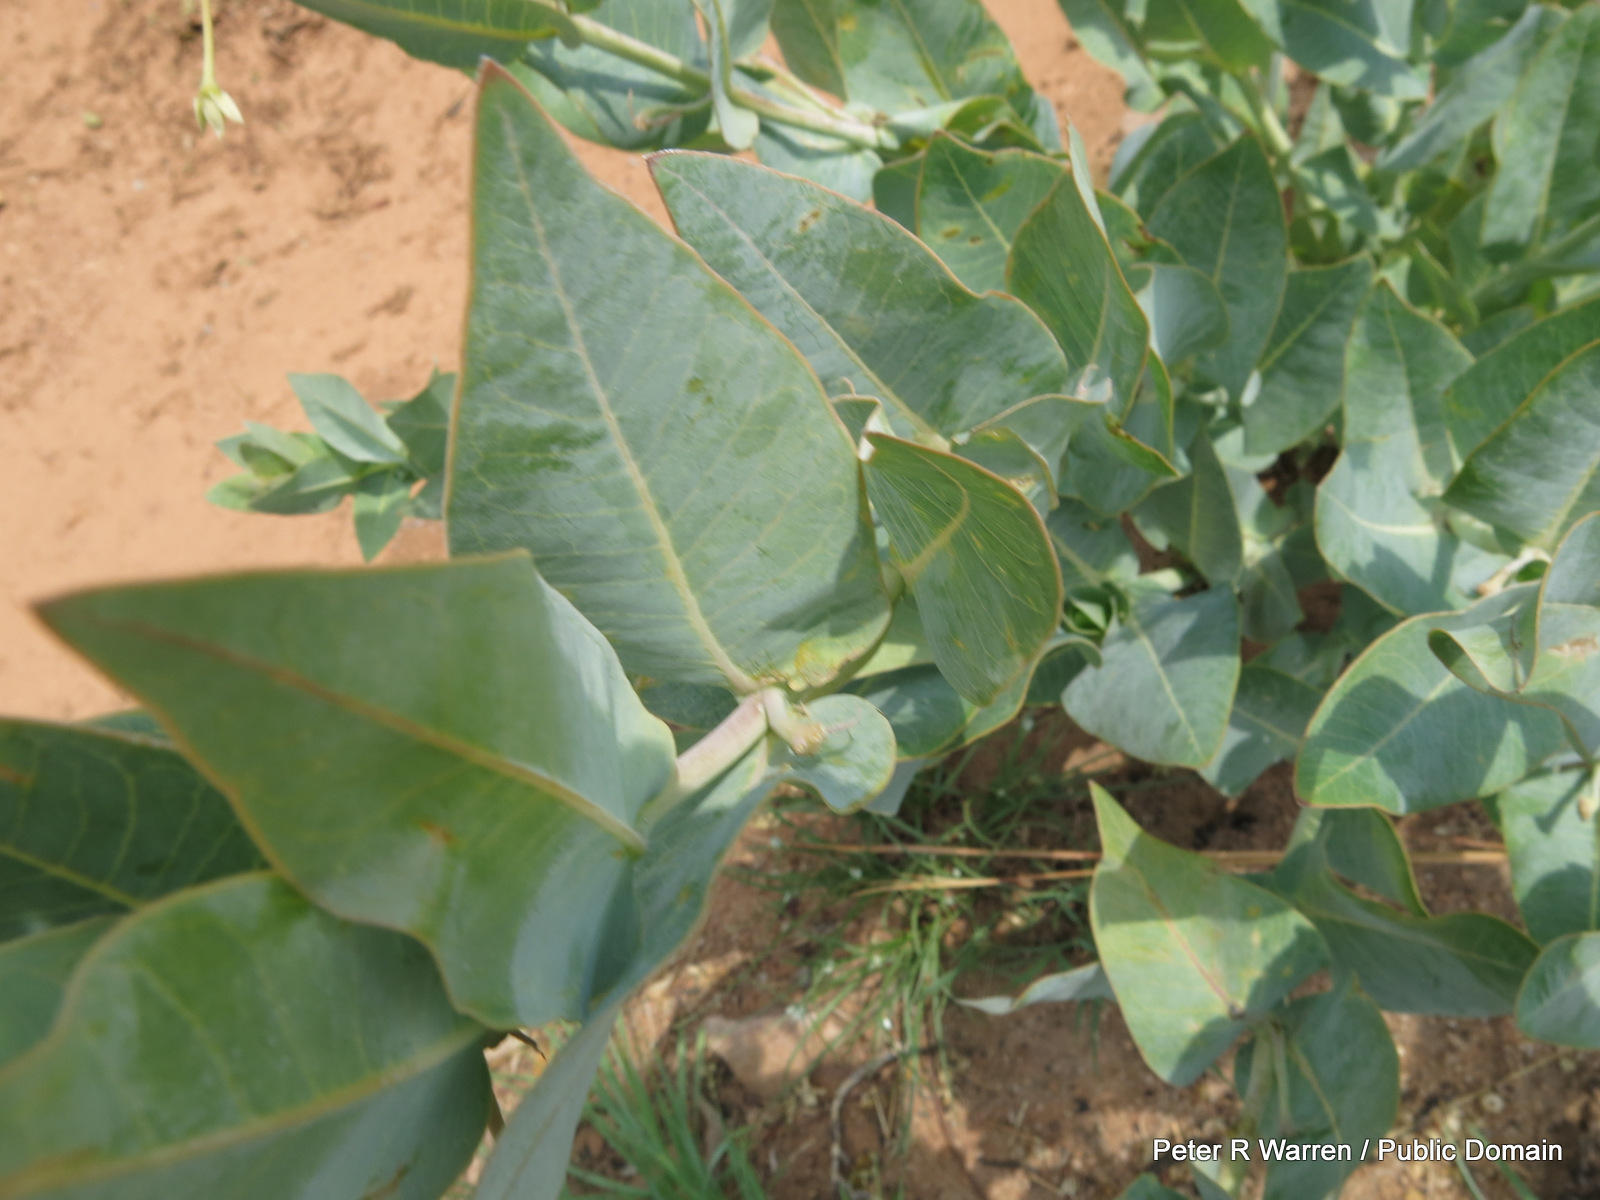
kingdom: Plantae
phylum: Tracheophyta
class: Magnoliopsida
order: Gentianales
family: Apocynaceae
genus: Gomphocarpus
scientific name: Gomphocarpus glaucophyllus
